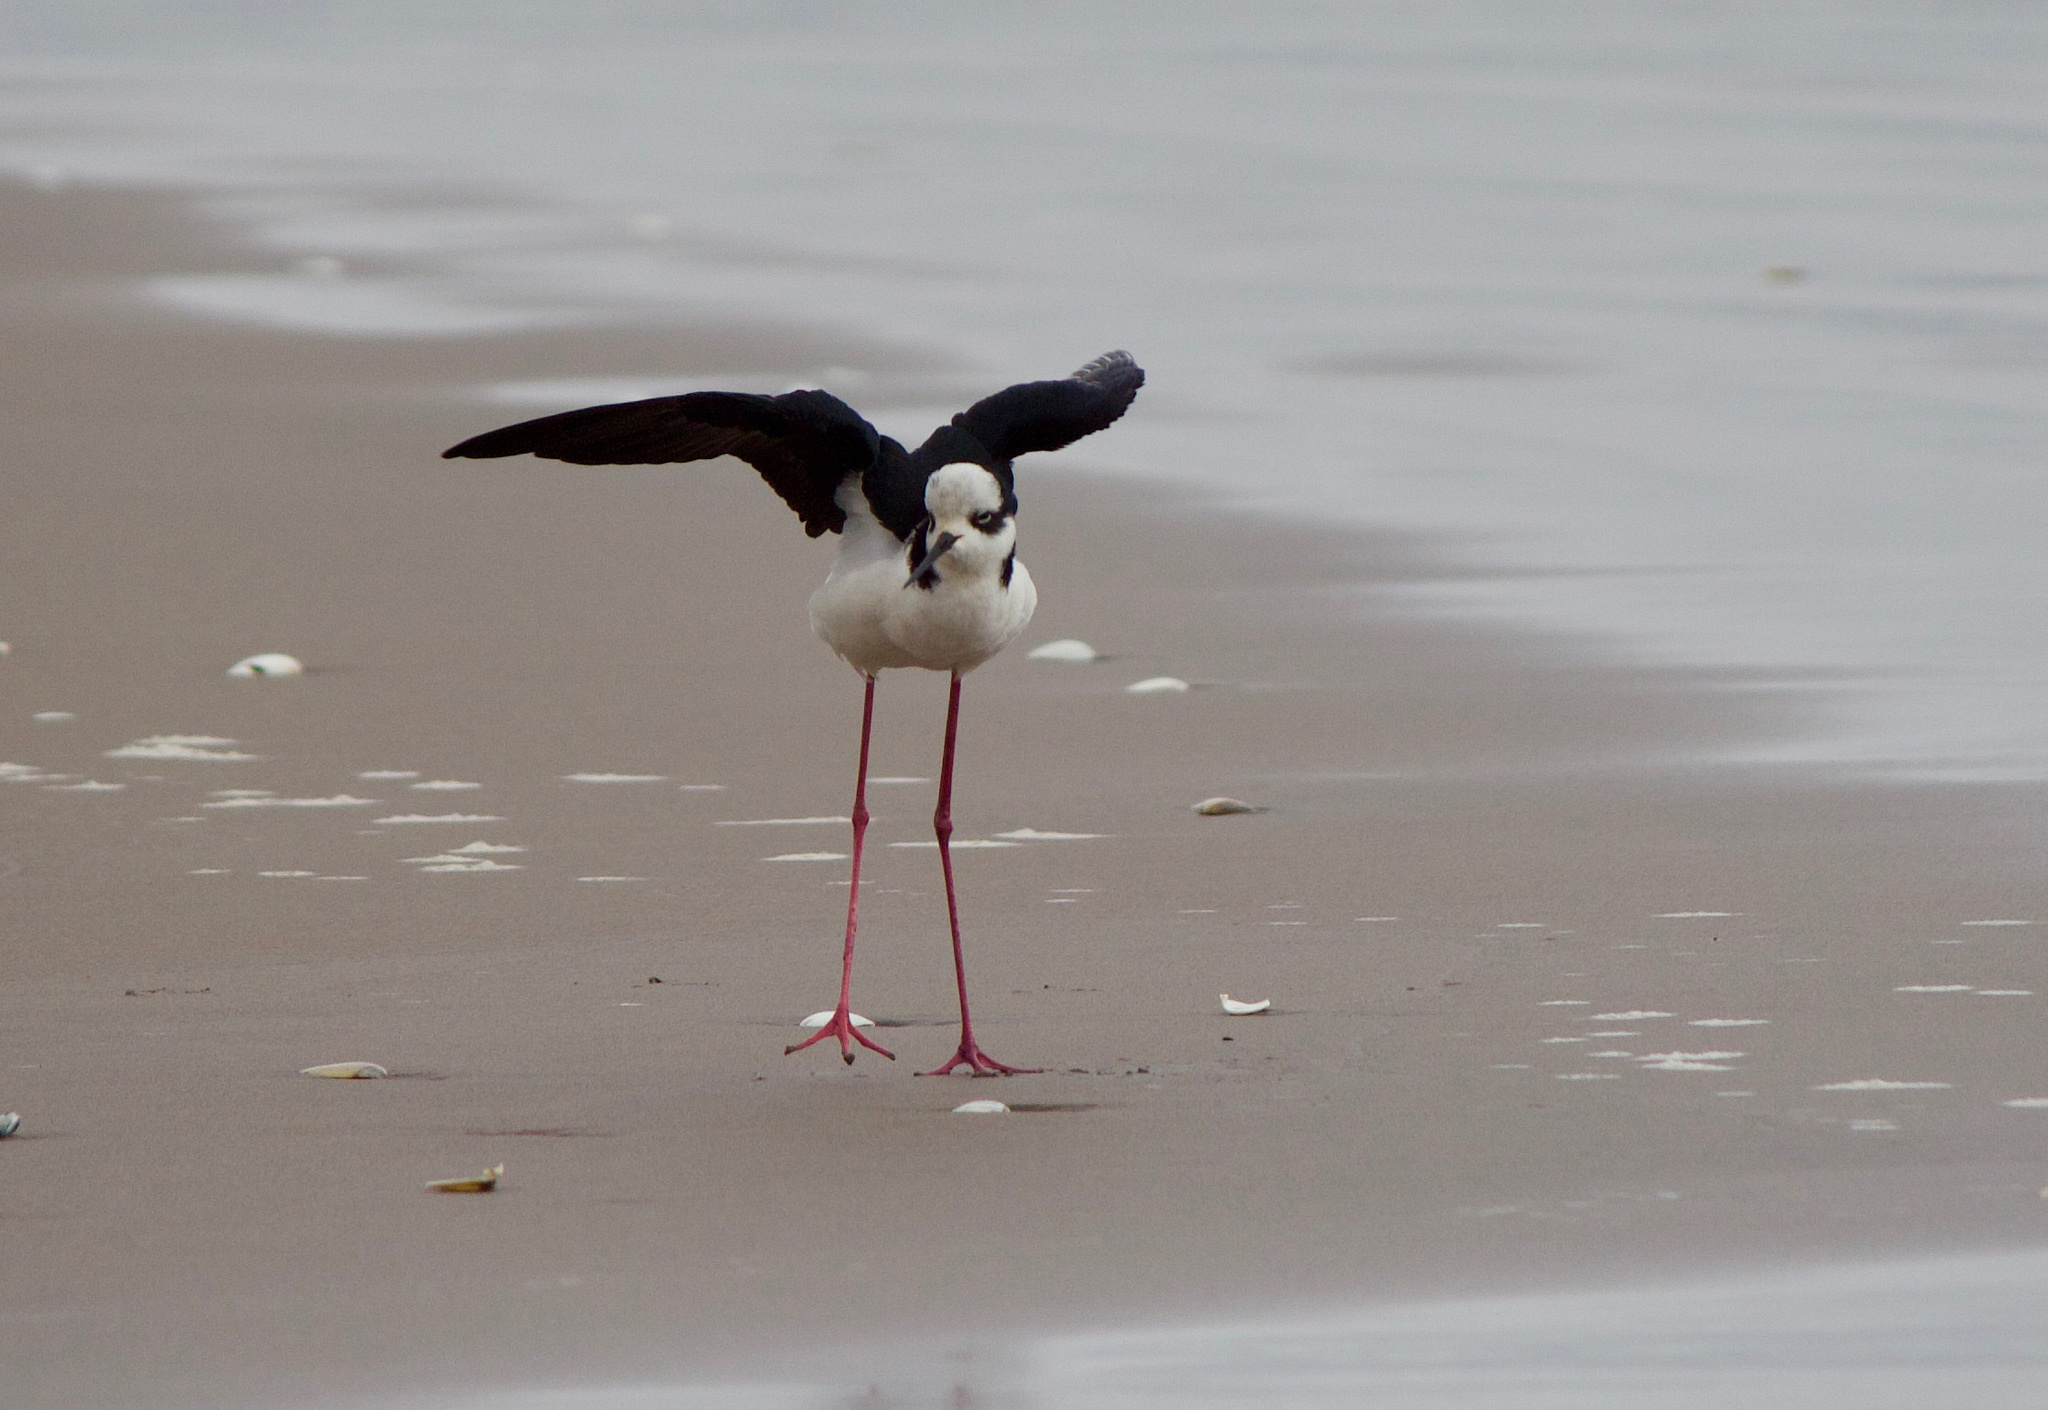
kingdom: Animalia
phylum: Chordata
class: Aves
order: Charadriiformes
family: Recurvirostridae
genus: Himantopus
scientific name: Himantopus mexicanus
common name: Black-necked stilt
